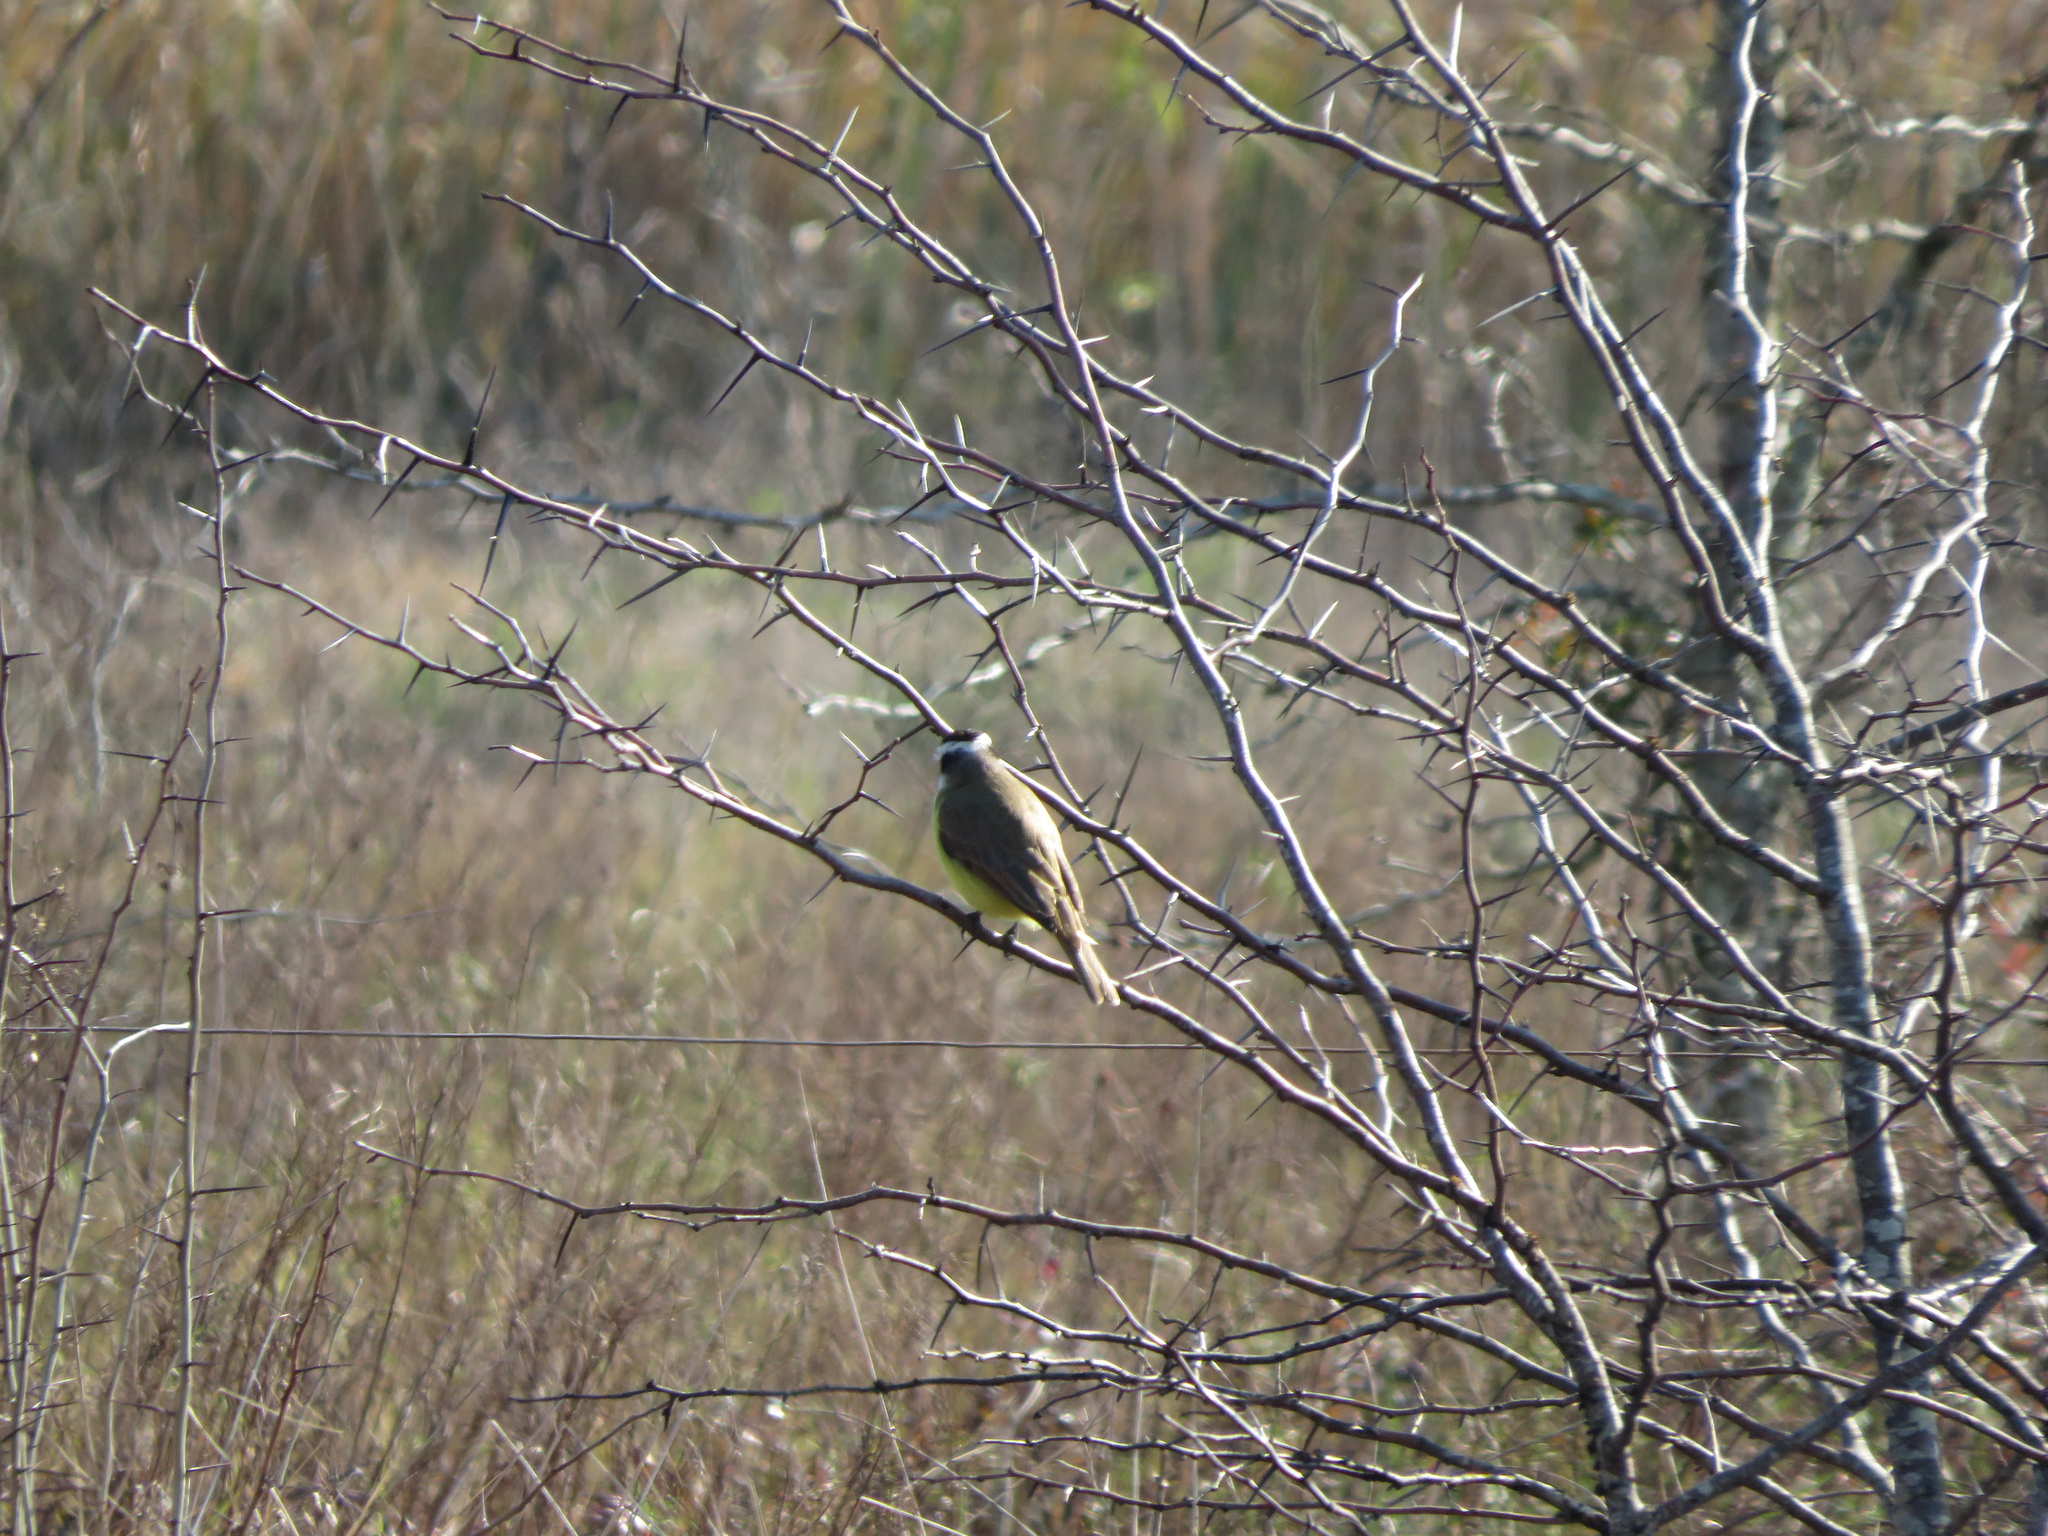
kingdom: Animalia
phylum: Chordata
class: Aves
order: Passeriformes
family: Tyrannidae
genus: Pitangus
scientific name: Pitangus sulphuratus
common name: Great kiskadee
